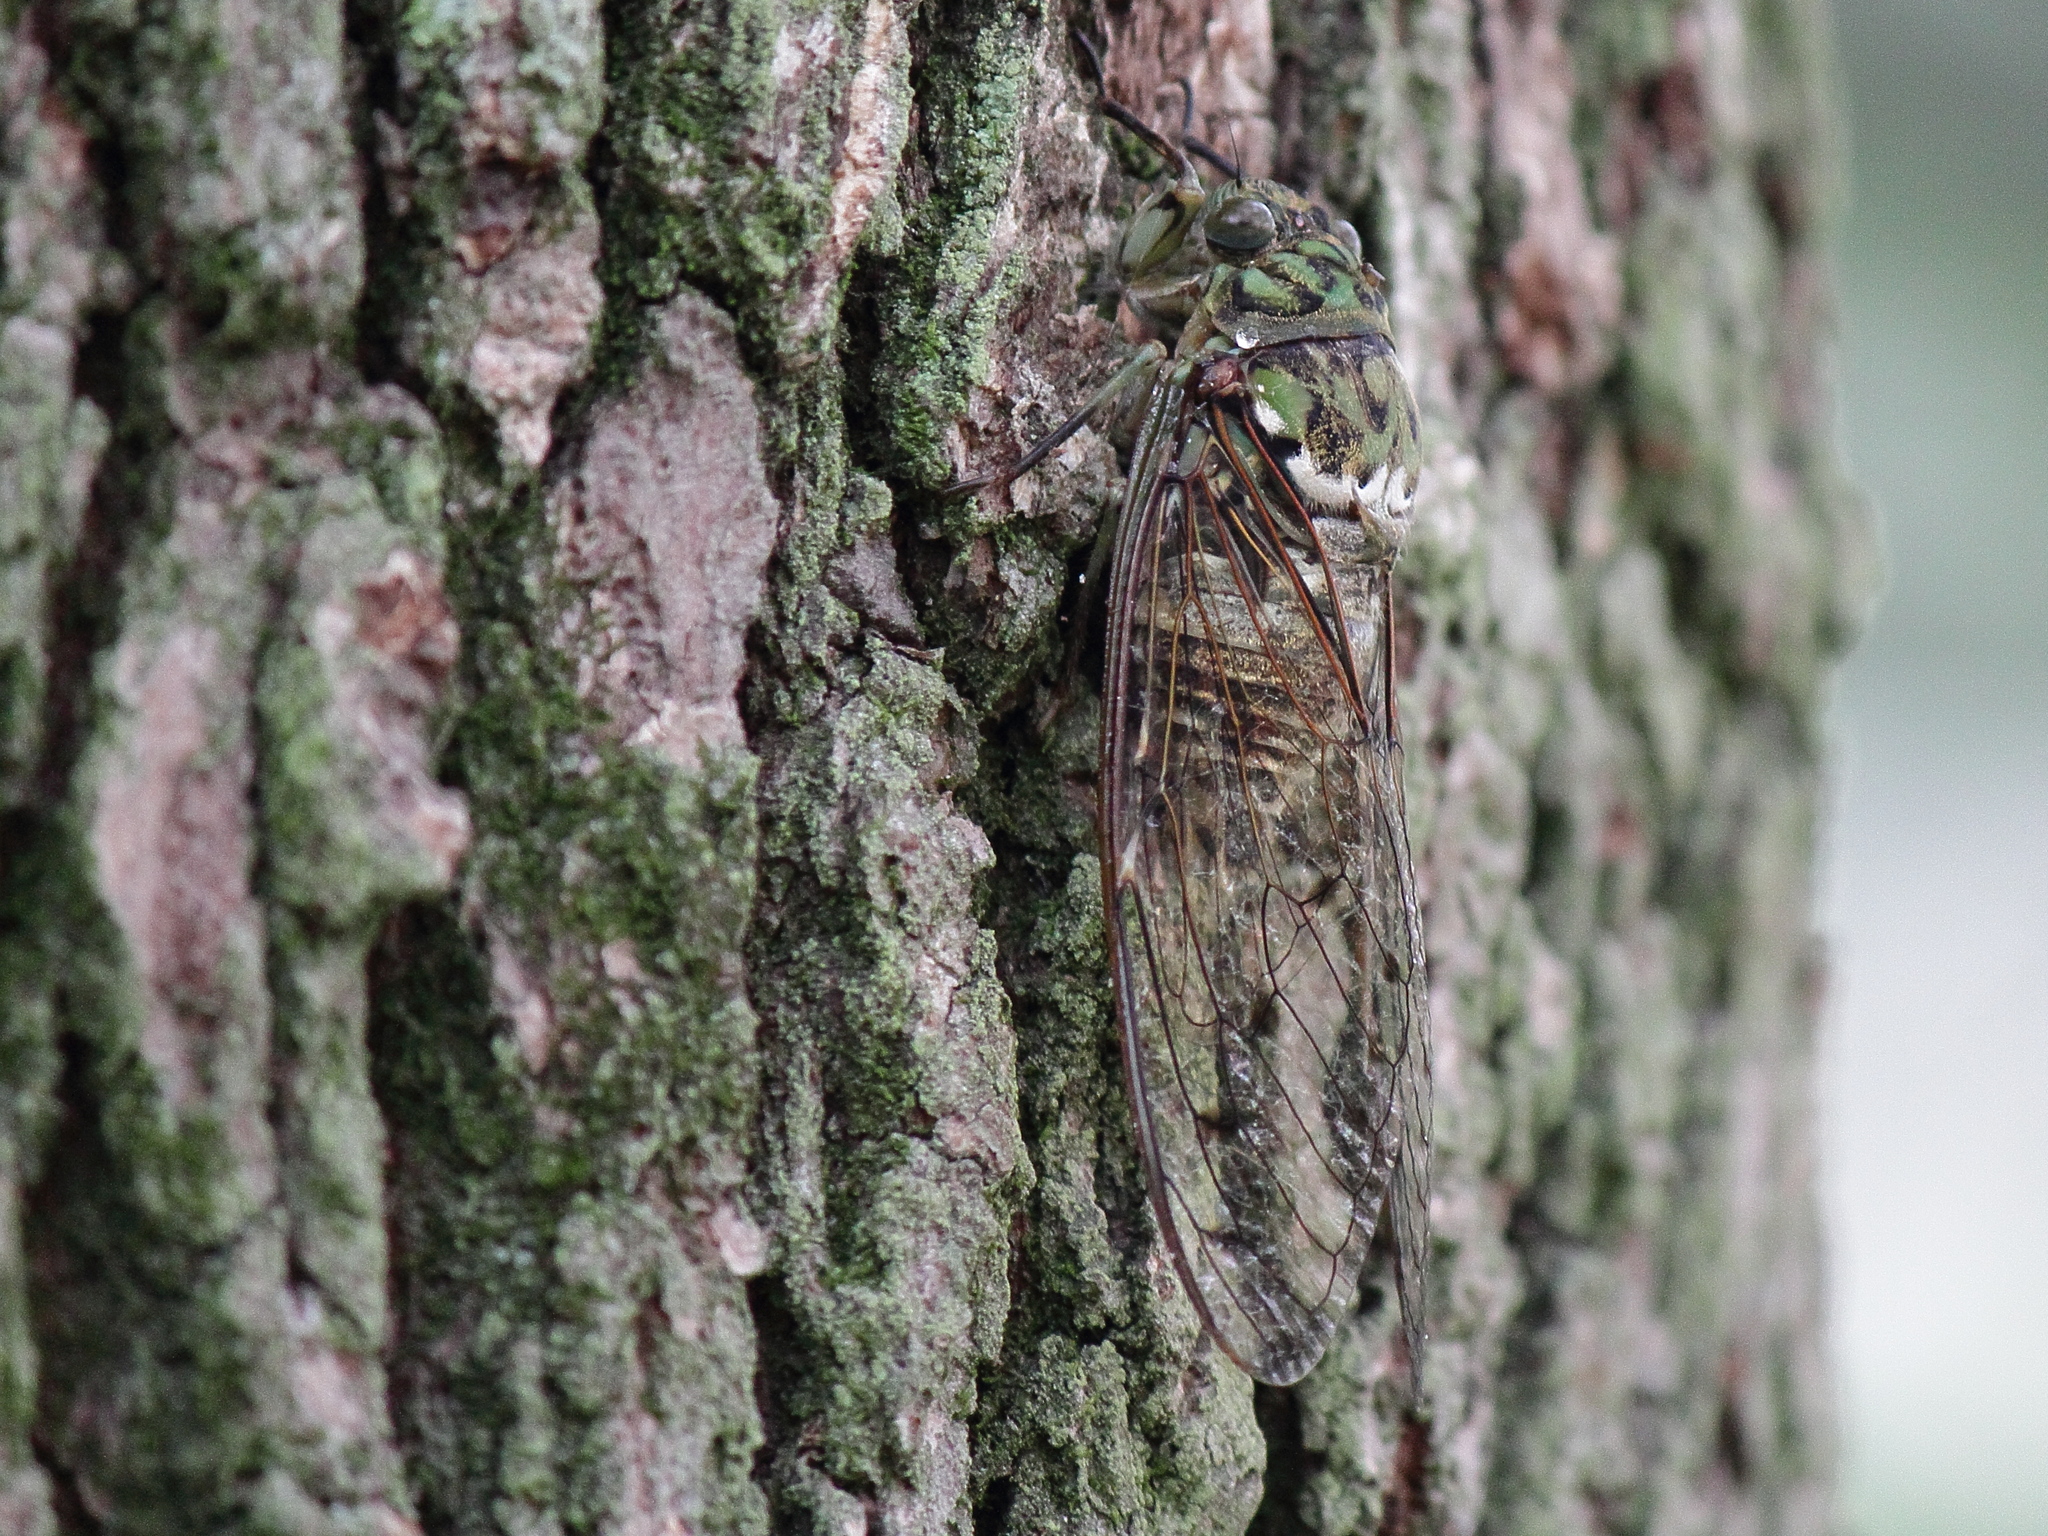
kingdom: Animalia
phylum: Arthropoda
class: Insecta
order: Hemiptera
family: Cicadidae
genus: Hyalessa
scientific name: Hyalessa maculaticollis
